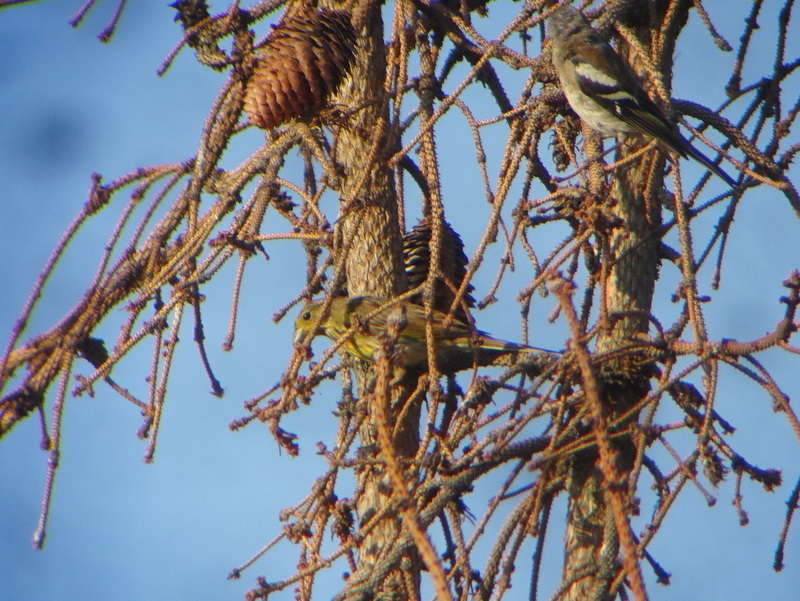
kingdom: Animalia
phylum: Chordata
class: Aves
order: Passeriformes
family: Emberizidae
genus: Emberiza
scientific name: Emberiza citrinella
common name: Yellowhammer
